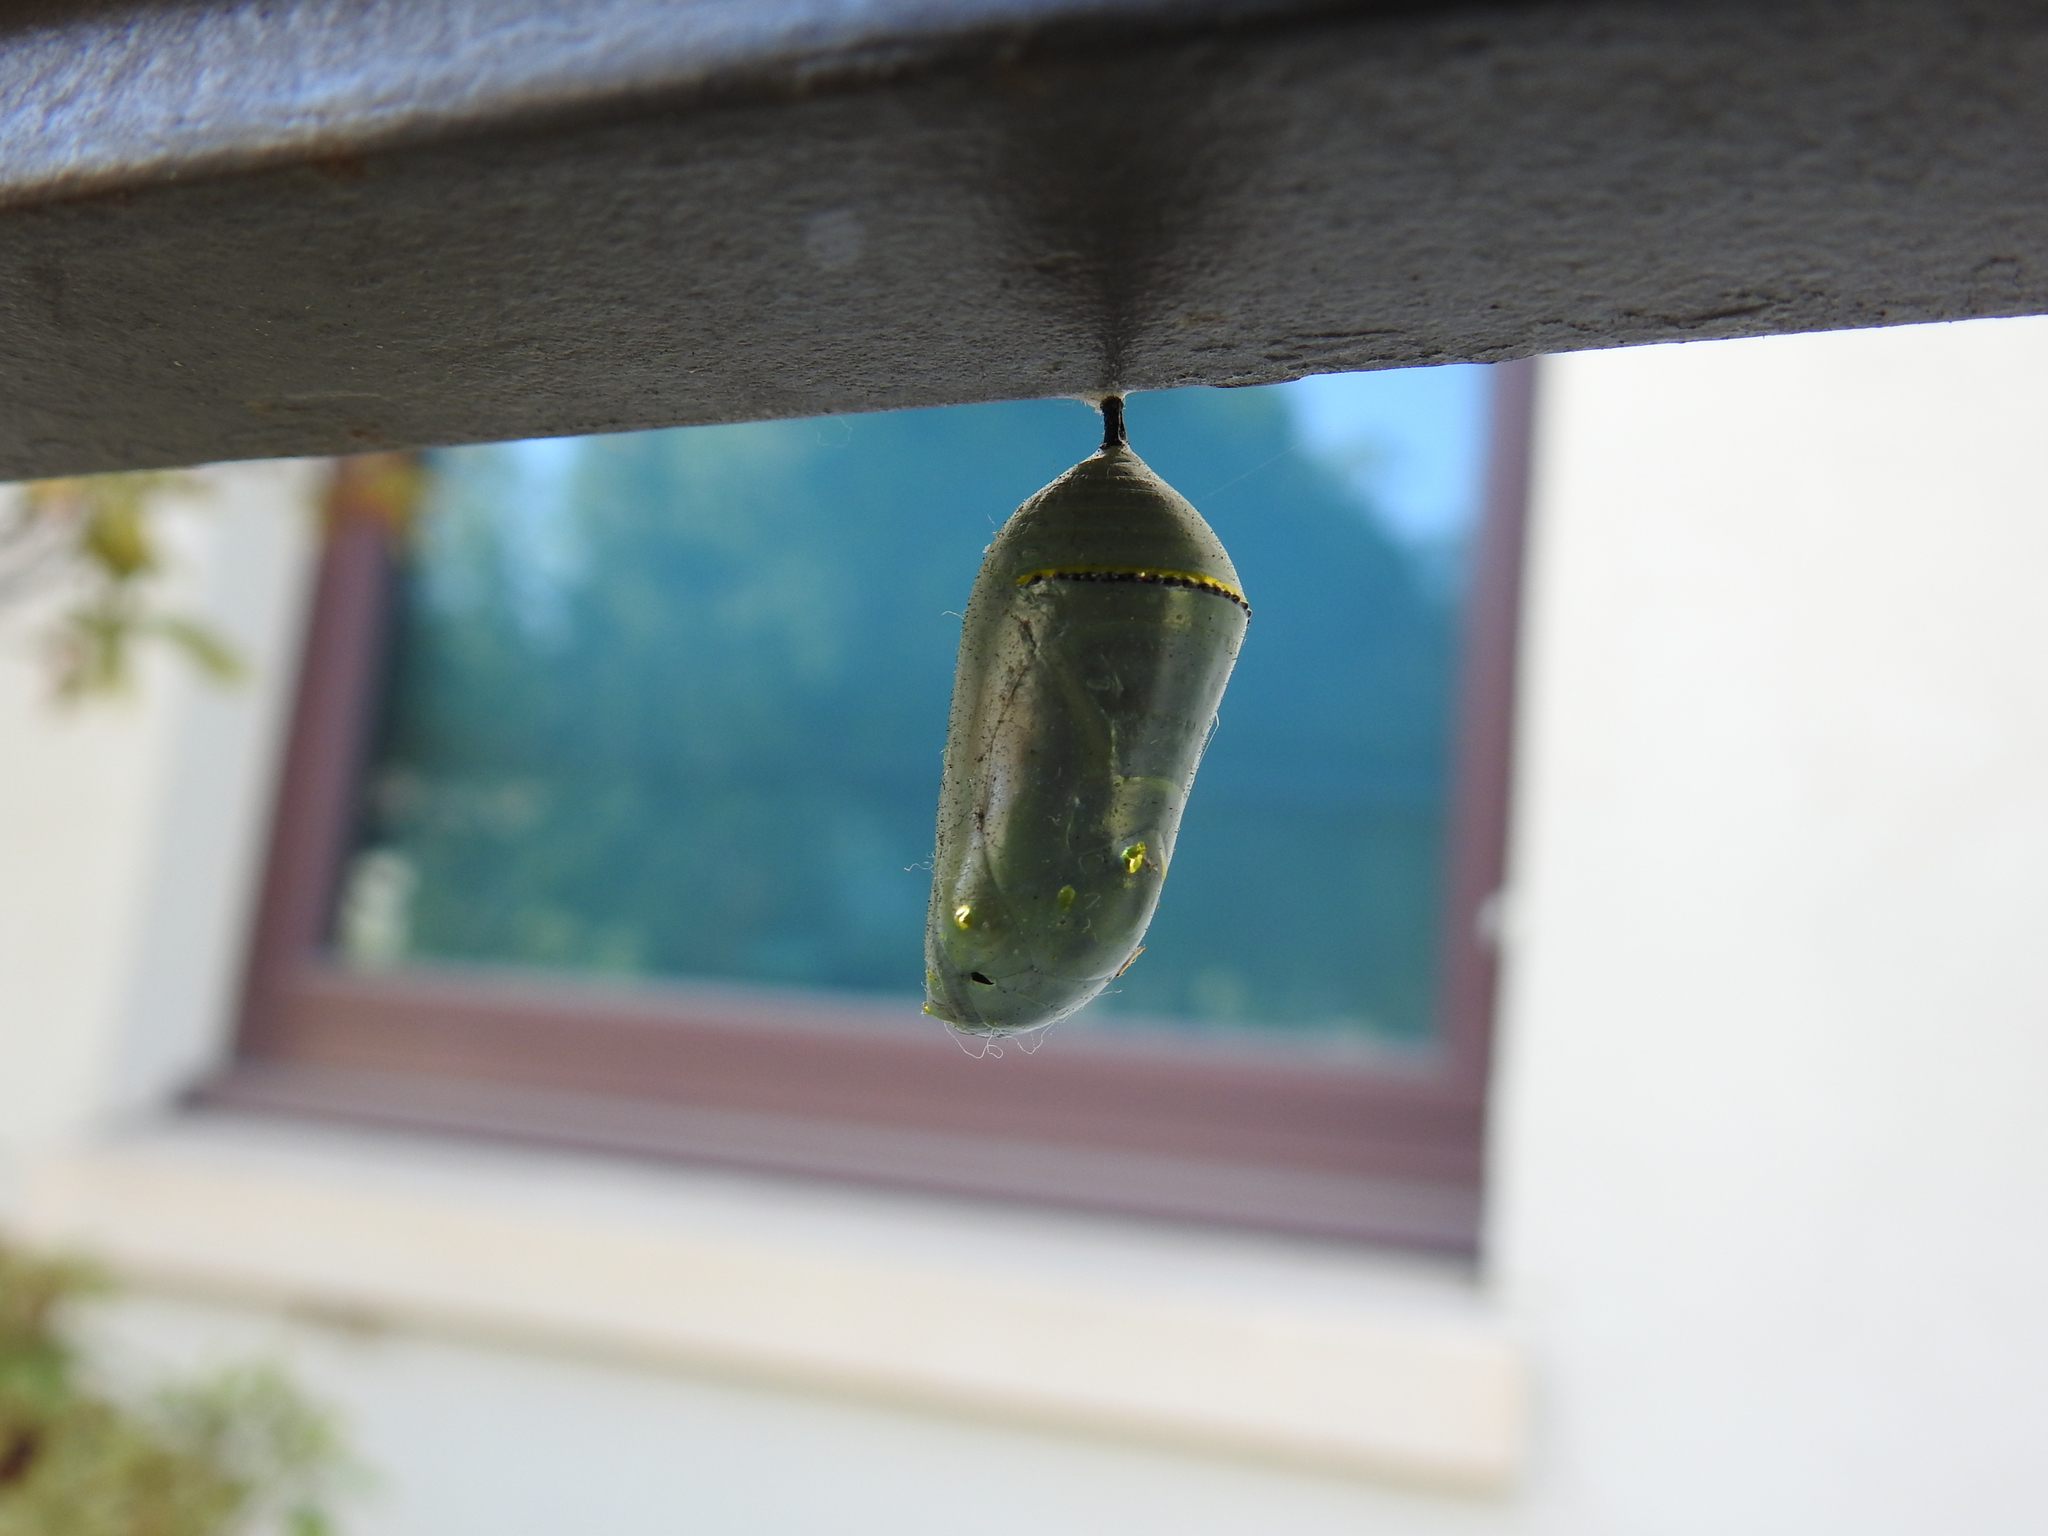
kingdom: Animalia
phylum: Arthropoda
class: Insecta
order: Lepidoptera
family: Nymphalidae
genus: Danaus
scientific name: Danaus plexippus
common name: Monarch
